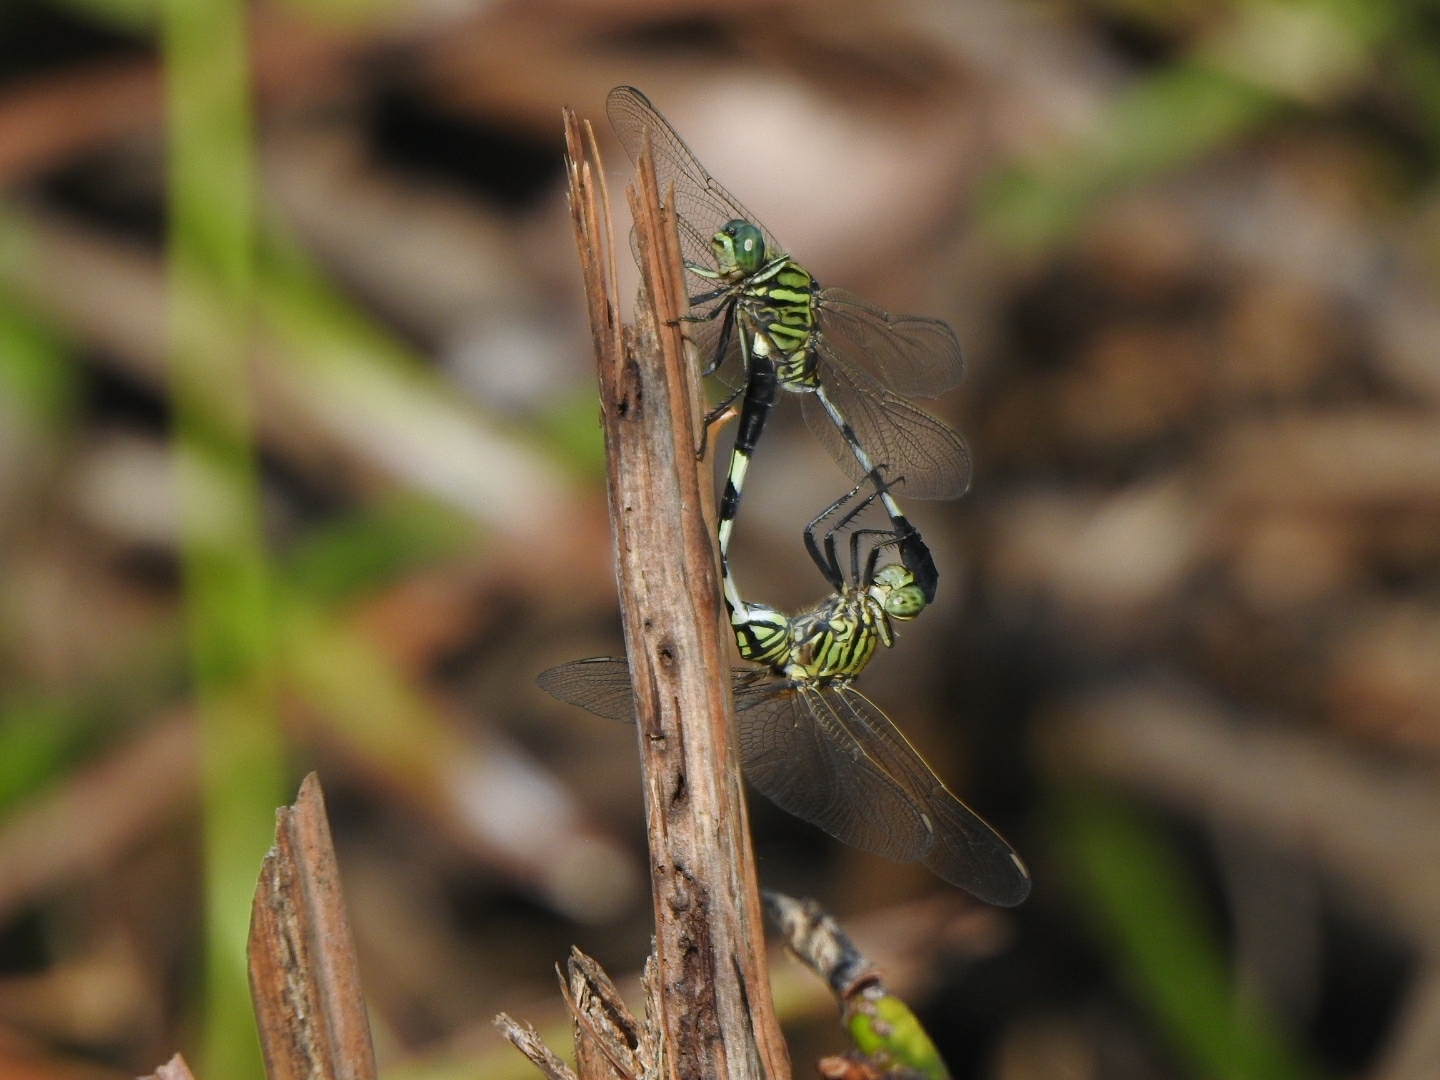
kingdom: Animalia
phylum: Arthropoda
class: Insecta
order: Odonata
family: Libellulidae
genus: Orthetrum
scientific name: Orthetrum sabina
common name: Slender skimmer
